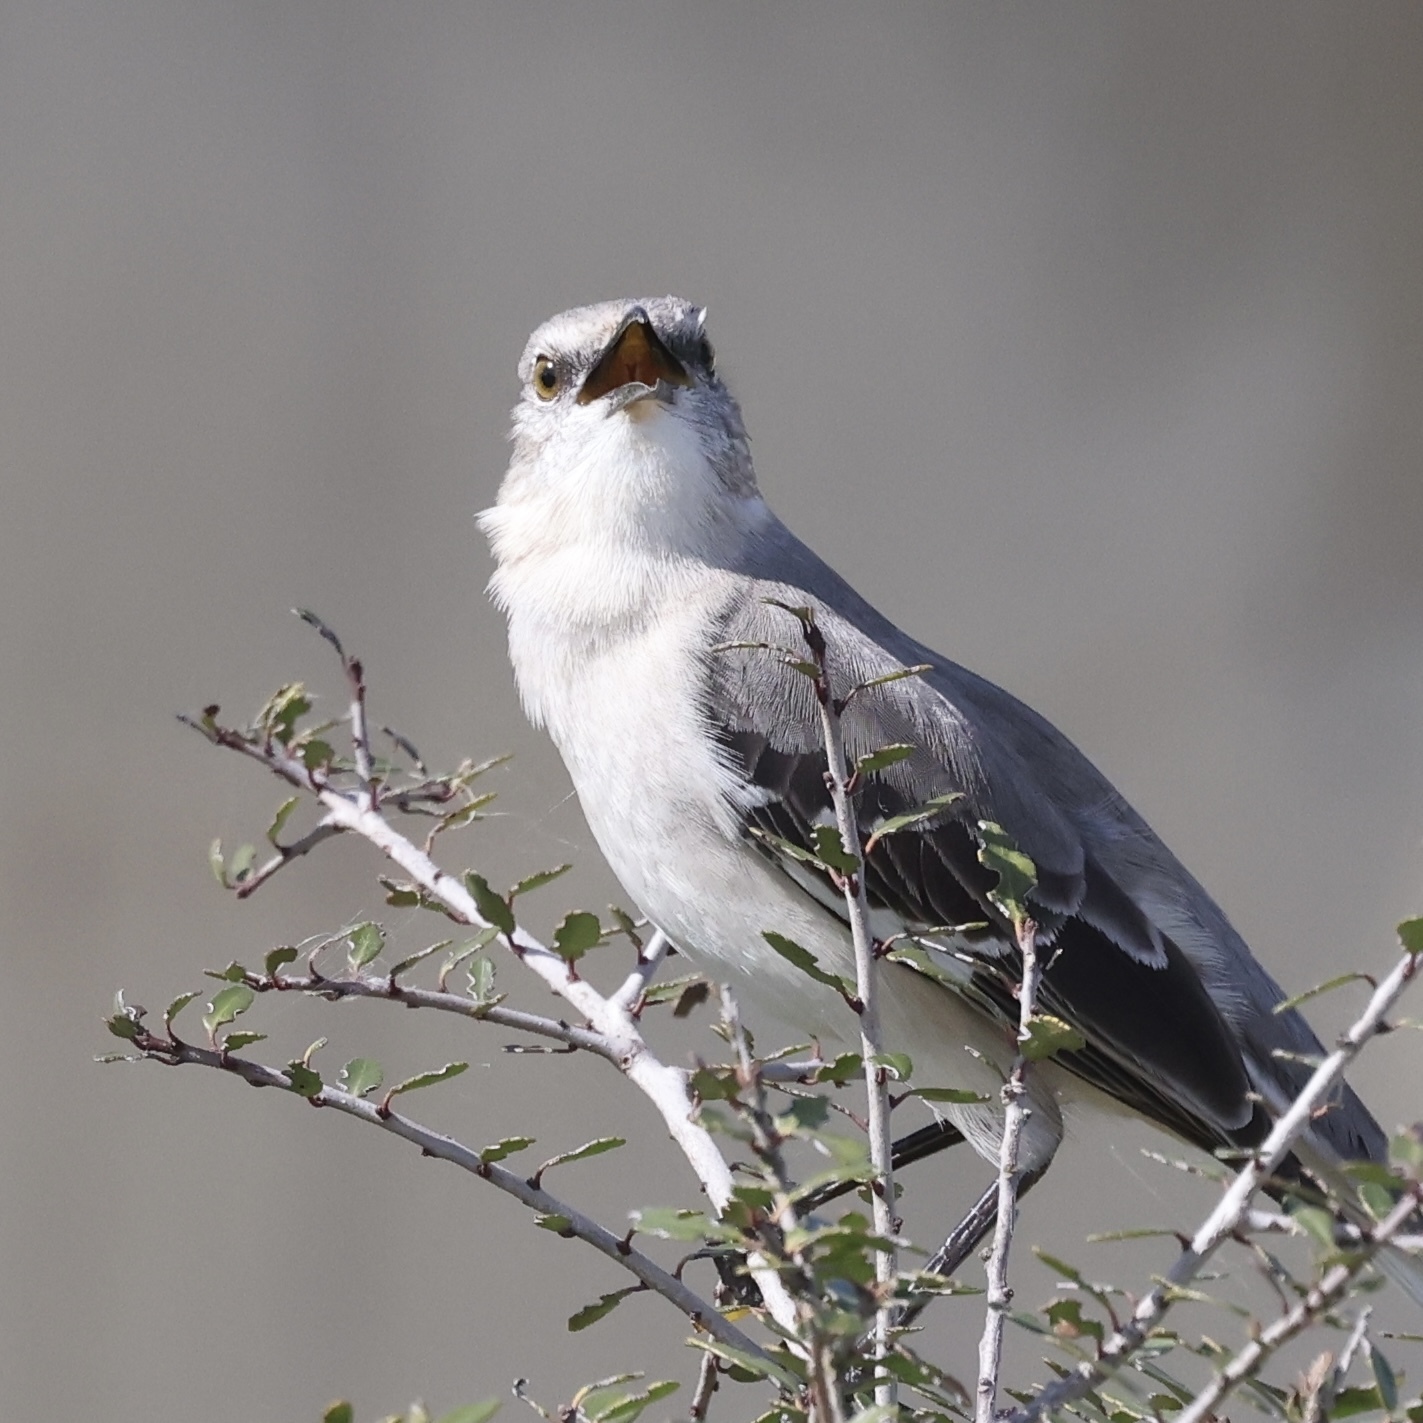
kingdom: Animalia
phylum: Chordata
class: Aves
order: Passeriformes
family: Mimidae
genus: Mimus
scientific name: Mimus polyglottos
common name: Northern mockingbird
